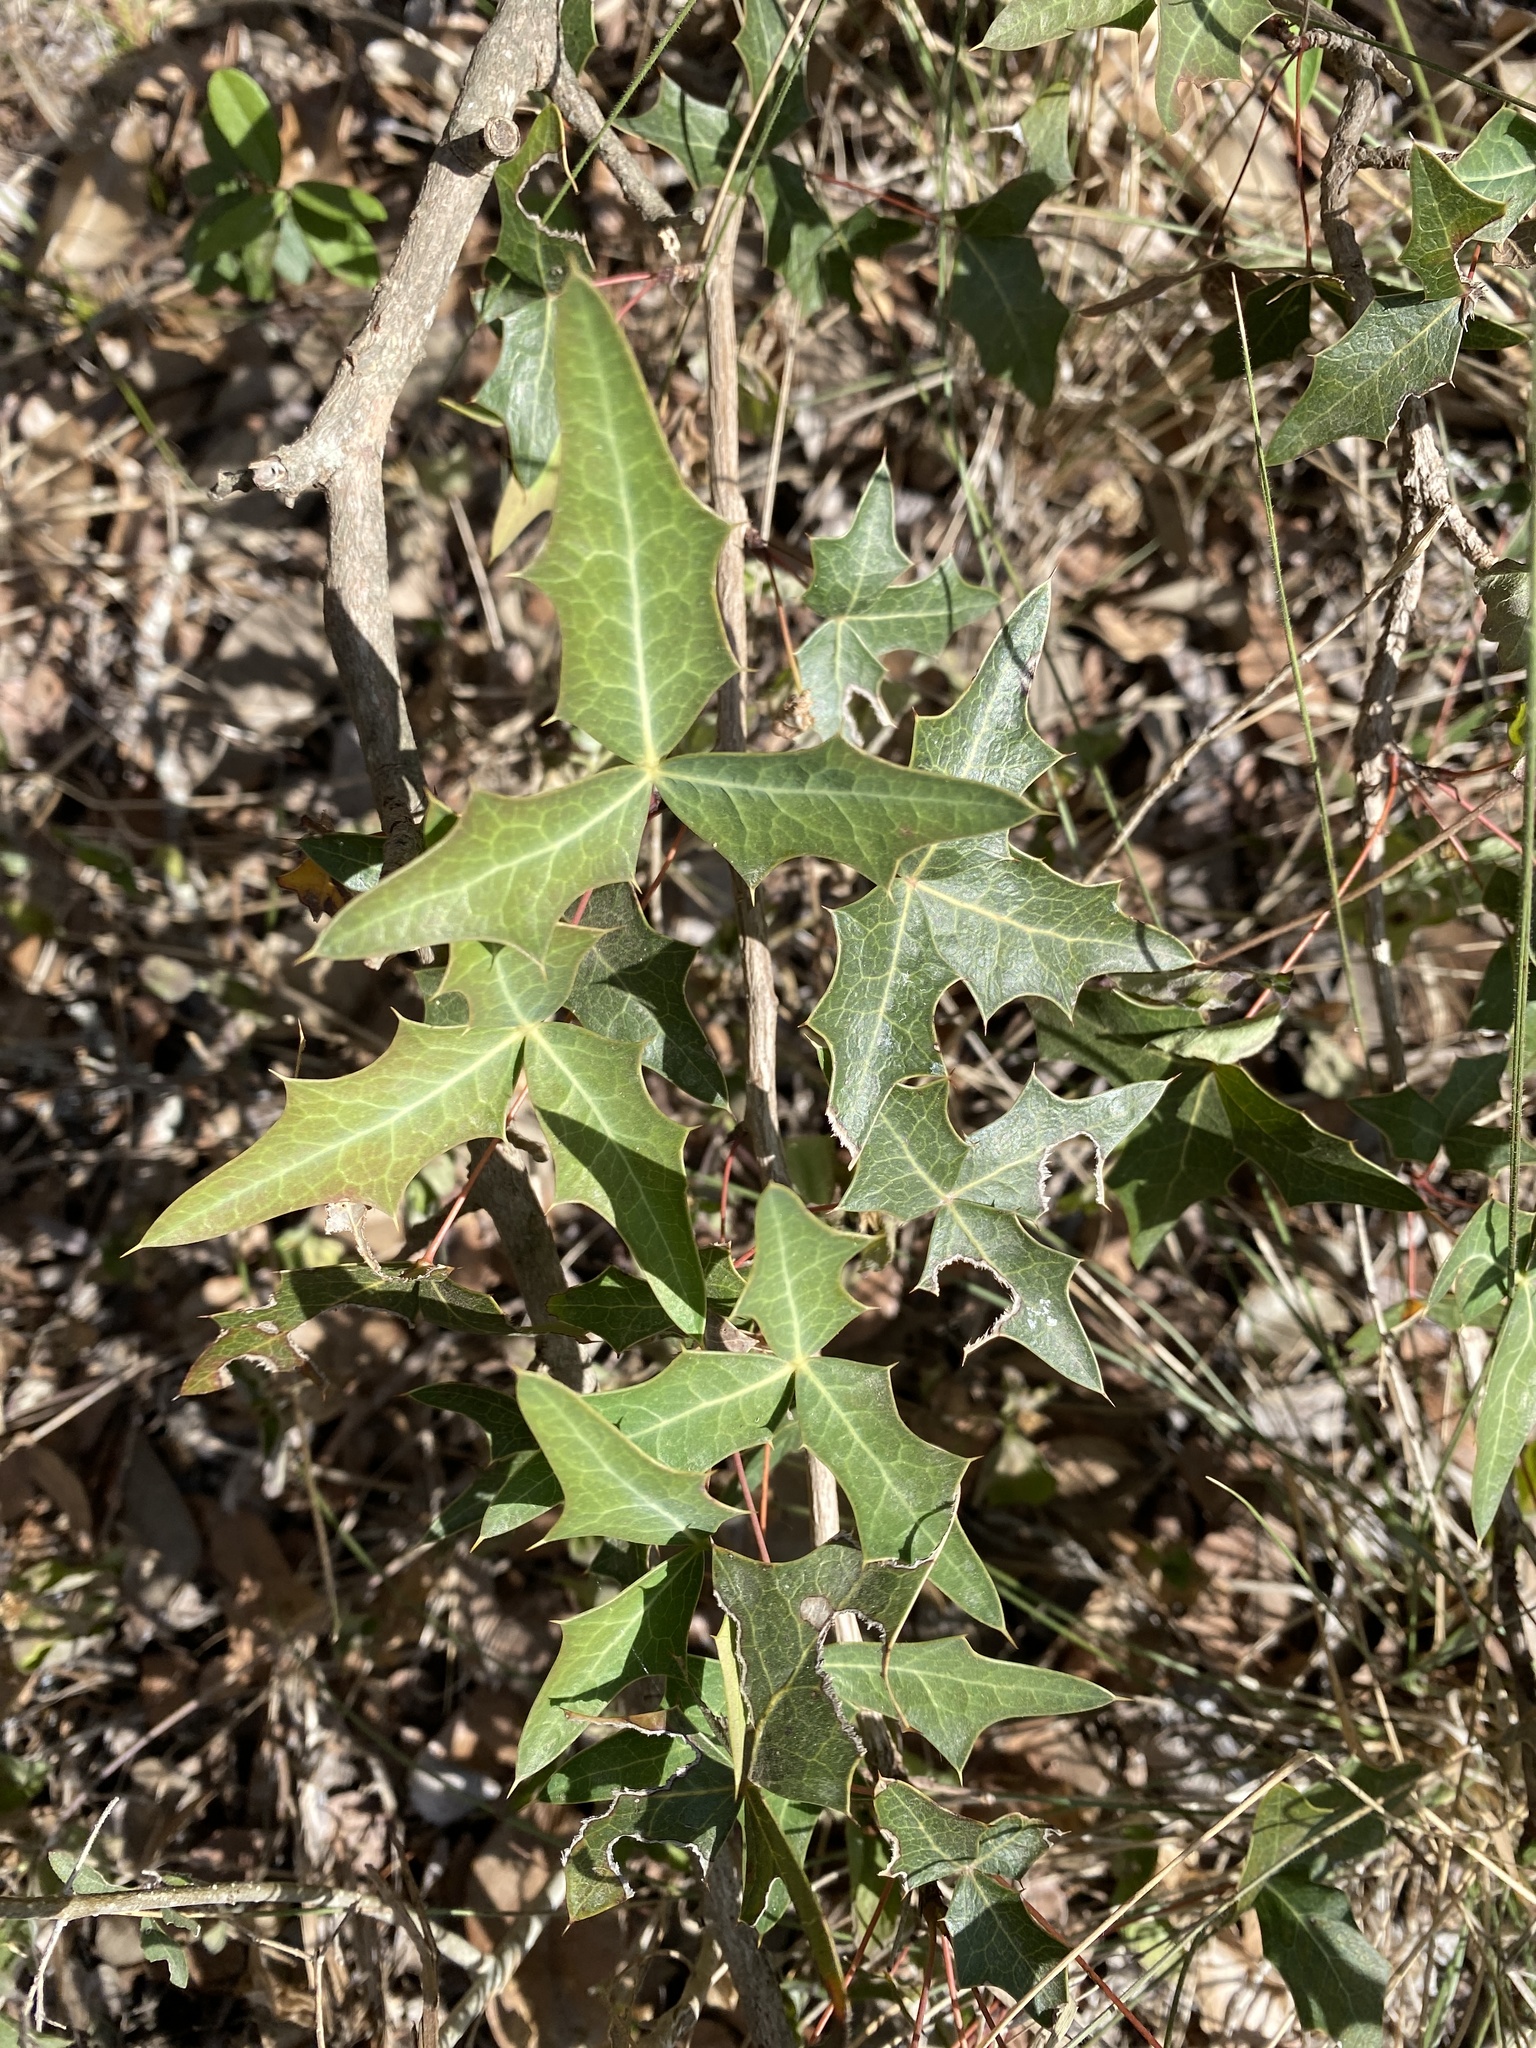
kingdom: Plantae
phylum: Tracheophyta
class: Magnoliopsida
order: Ranunculales
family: Berberidaceae
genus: Alloberberis
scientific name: Alloberberis trifoliolata
